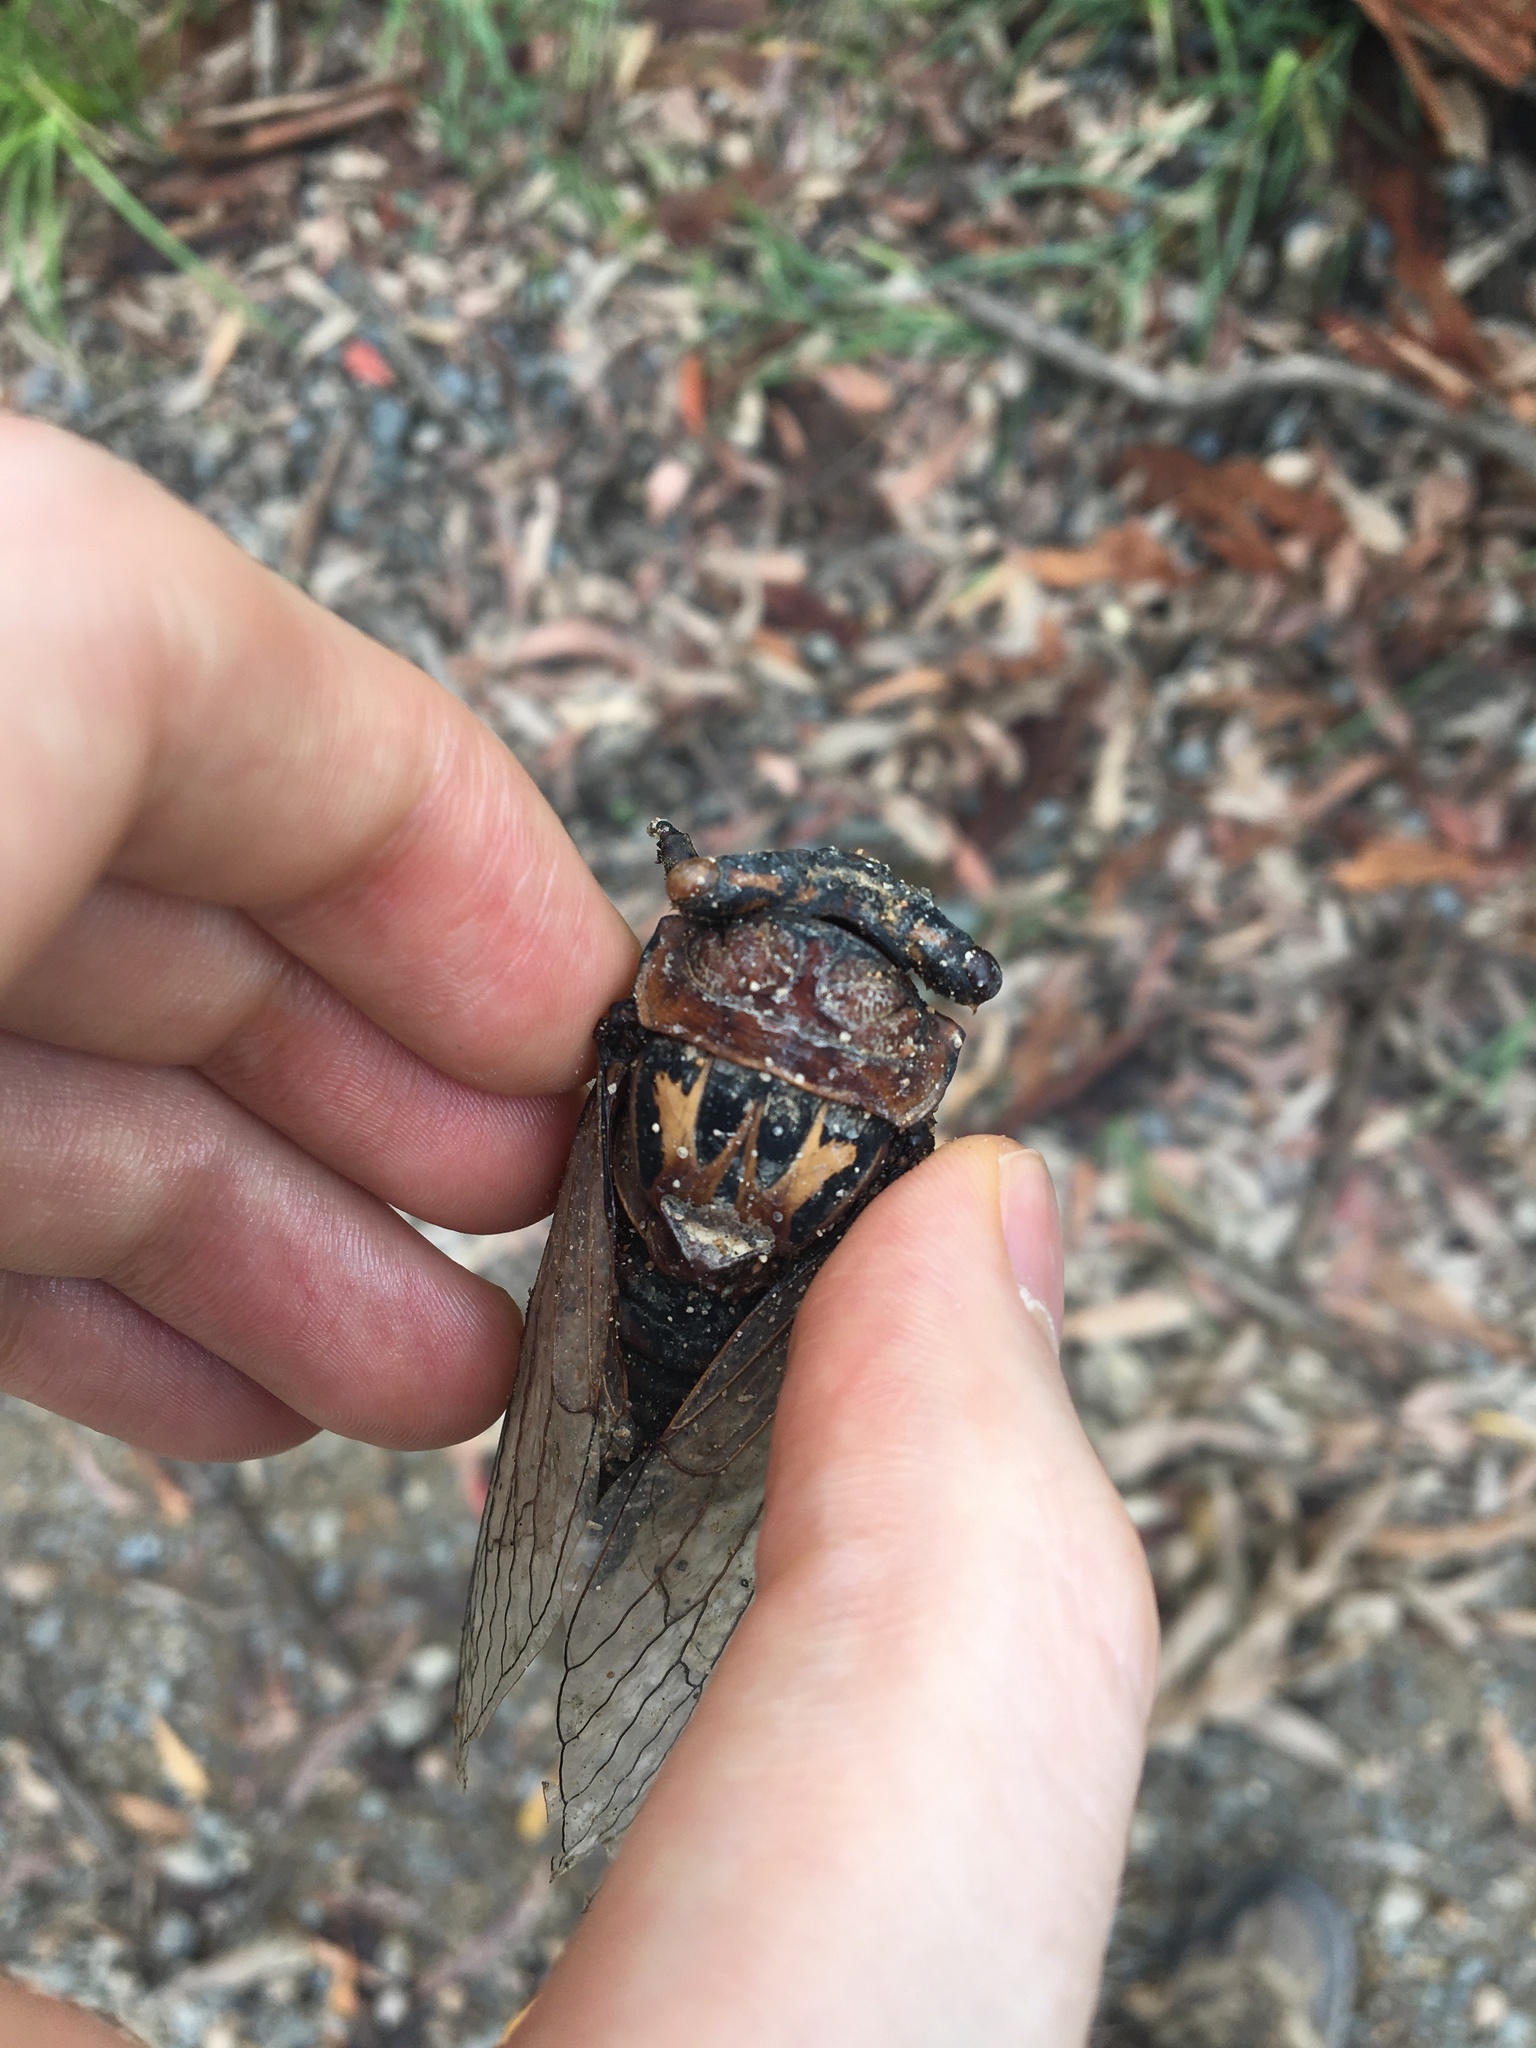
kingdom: Animalia
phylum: Arthropoda
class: Insecta
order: Hemiptera
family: Cicadidae
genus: Thopha
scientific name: Thopha saccata
